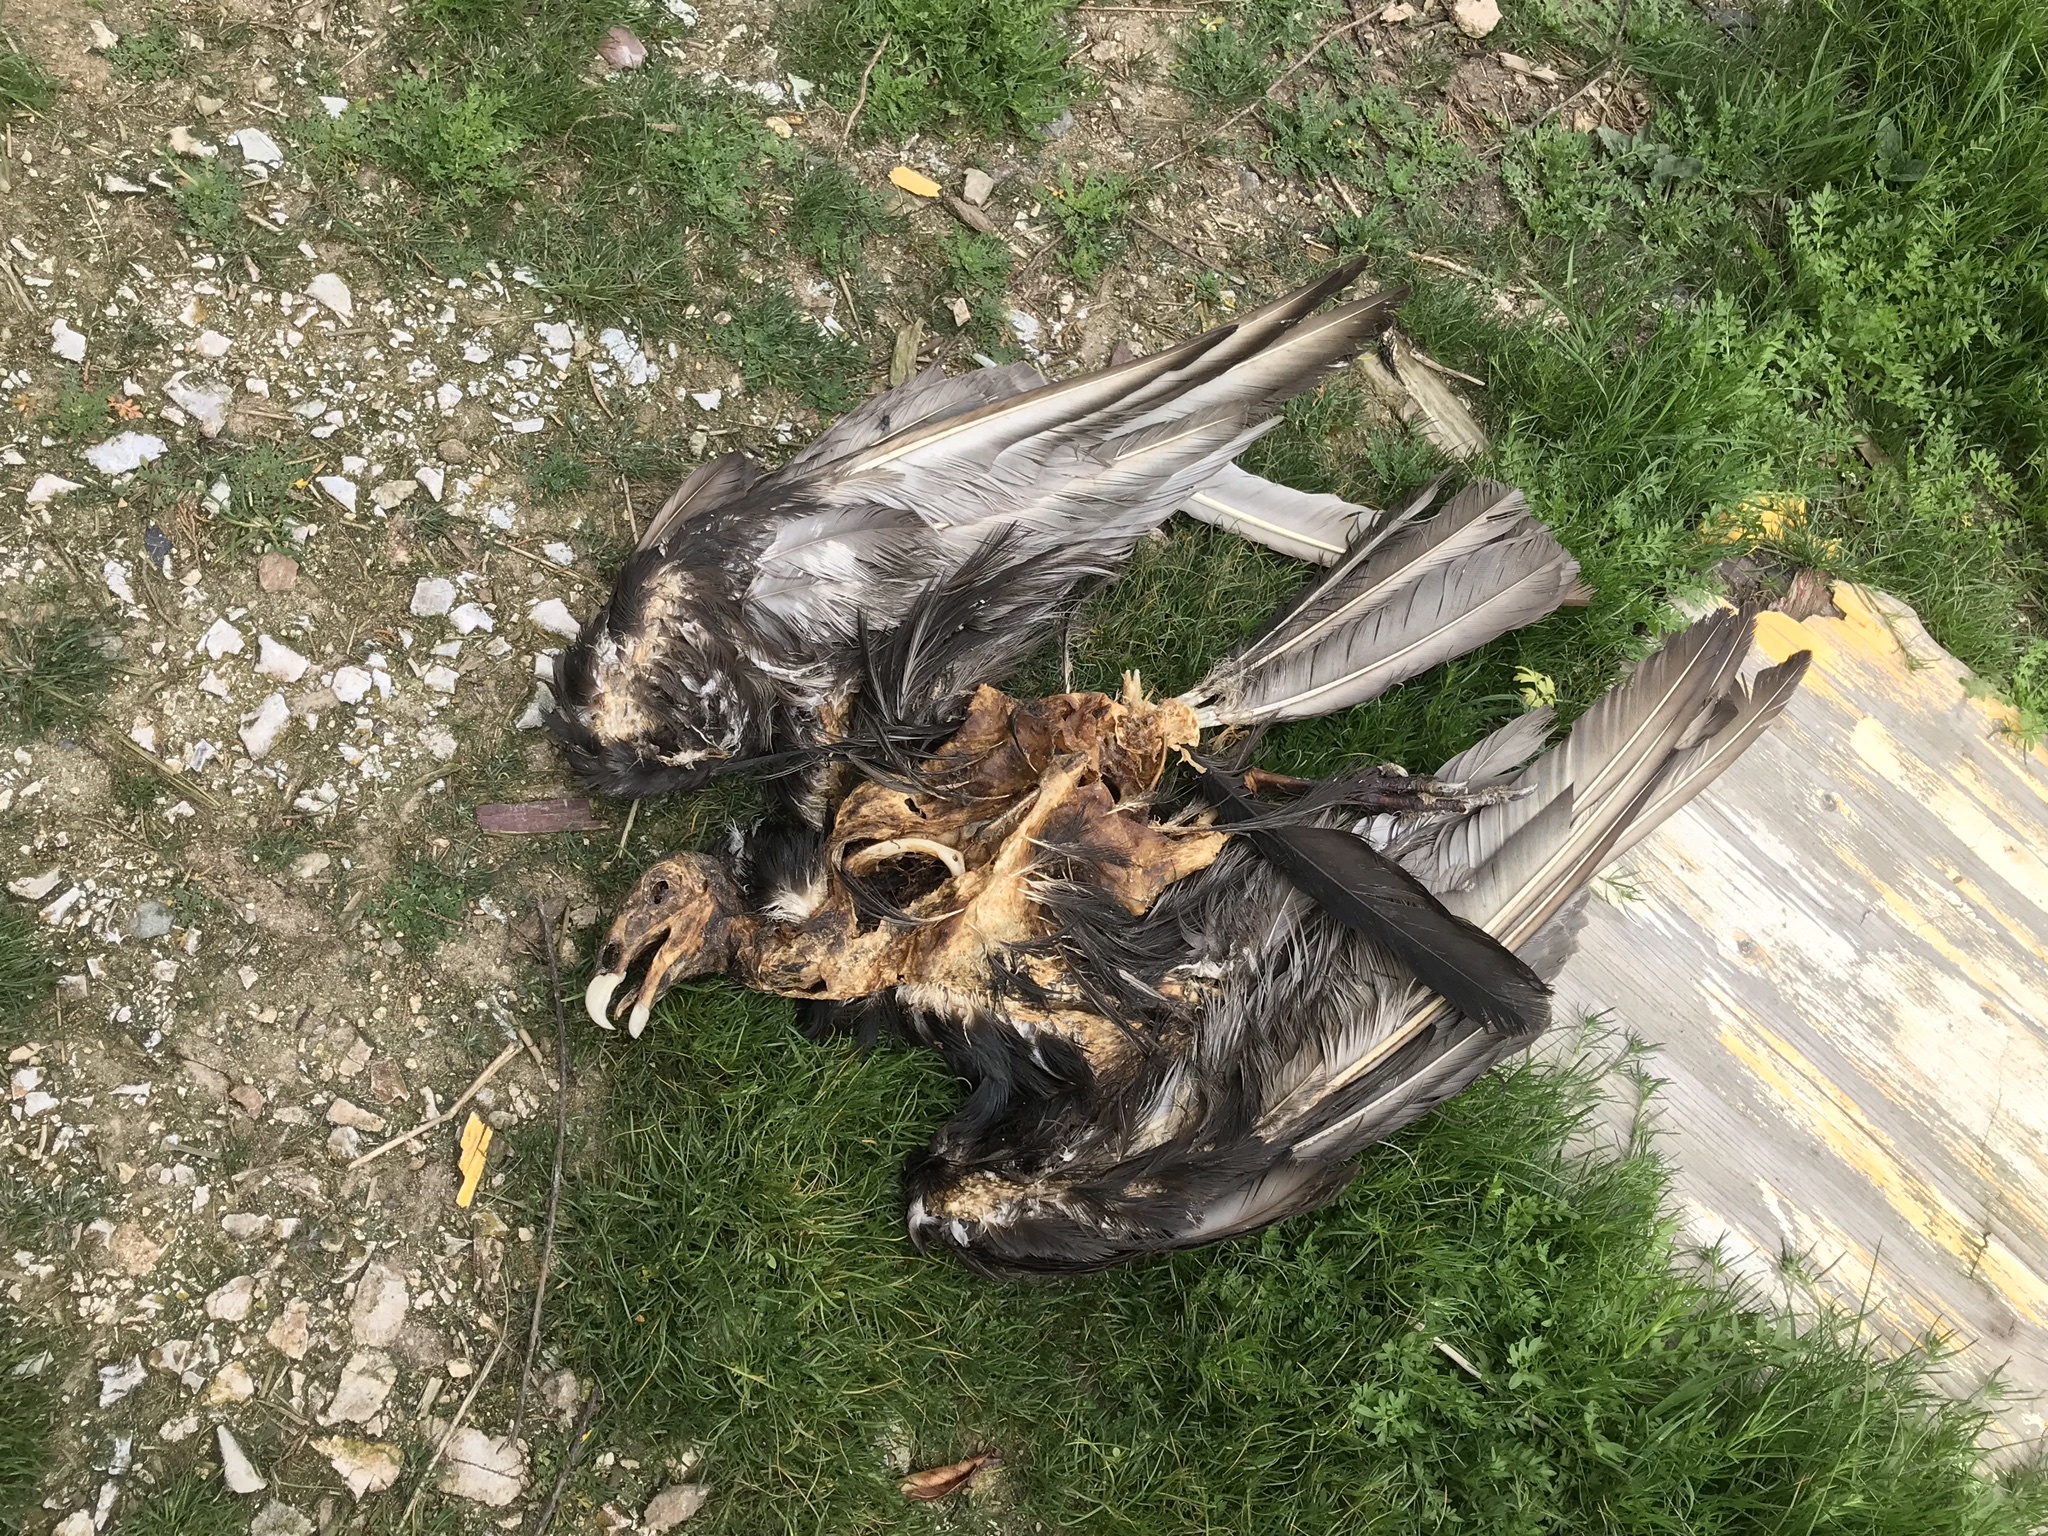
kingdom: Animalia
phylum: Chordata
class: Aves
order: Accipitriformes
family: Cathartidae
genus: Cathartes
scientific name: Cathartes aura
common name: Turkey vulture
